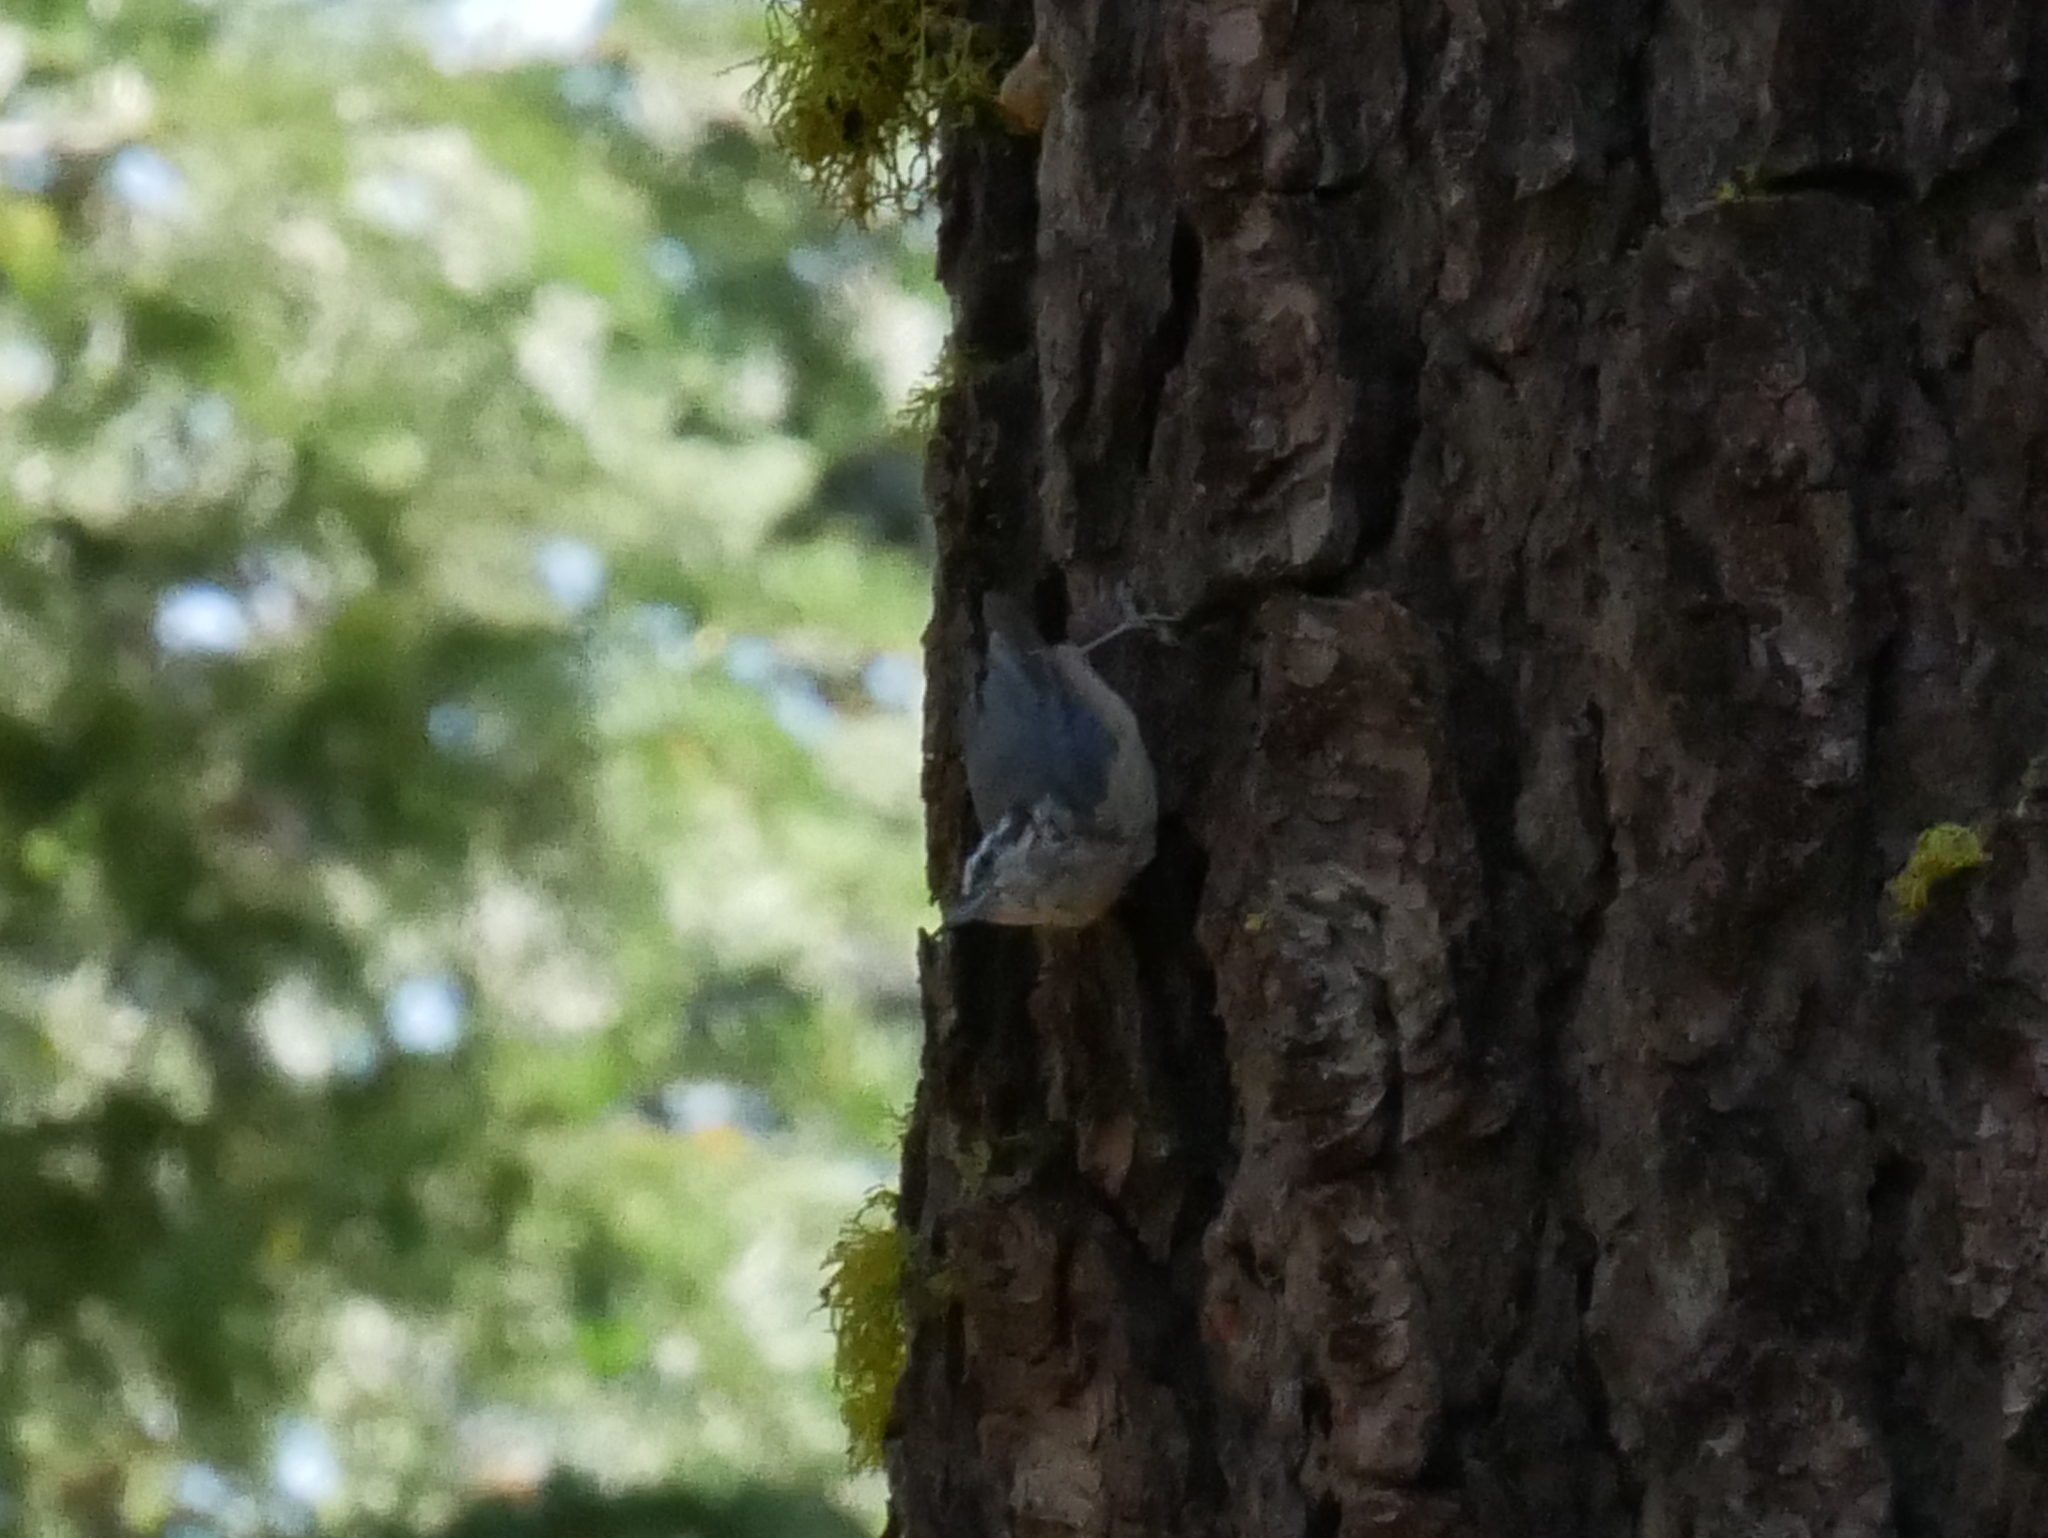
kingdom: Animalia
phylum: Chordata
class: Aves
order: Passeriformes
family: Sittidae
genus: Sitta
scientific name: Sitta canadensis
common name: Red-breasted nuthatch
